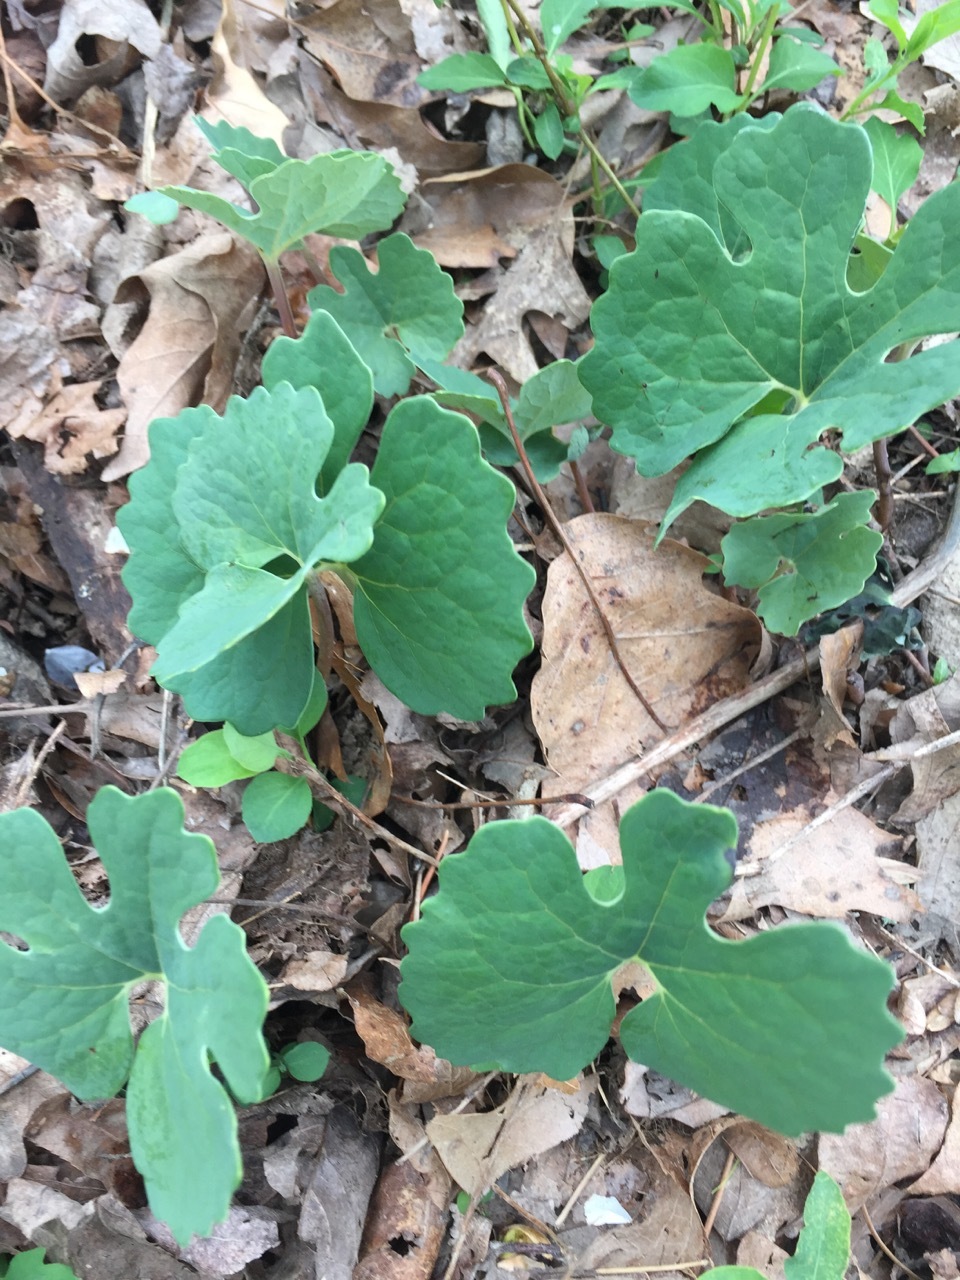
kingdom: Plantae
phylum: Tracheophyta
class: Magnoliopsida
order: Ranunculales
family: Papaveraceae
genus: Sanguinaria
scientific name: Sanguinaria canadensis
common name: Bloodroot
